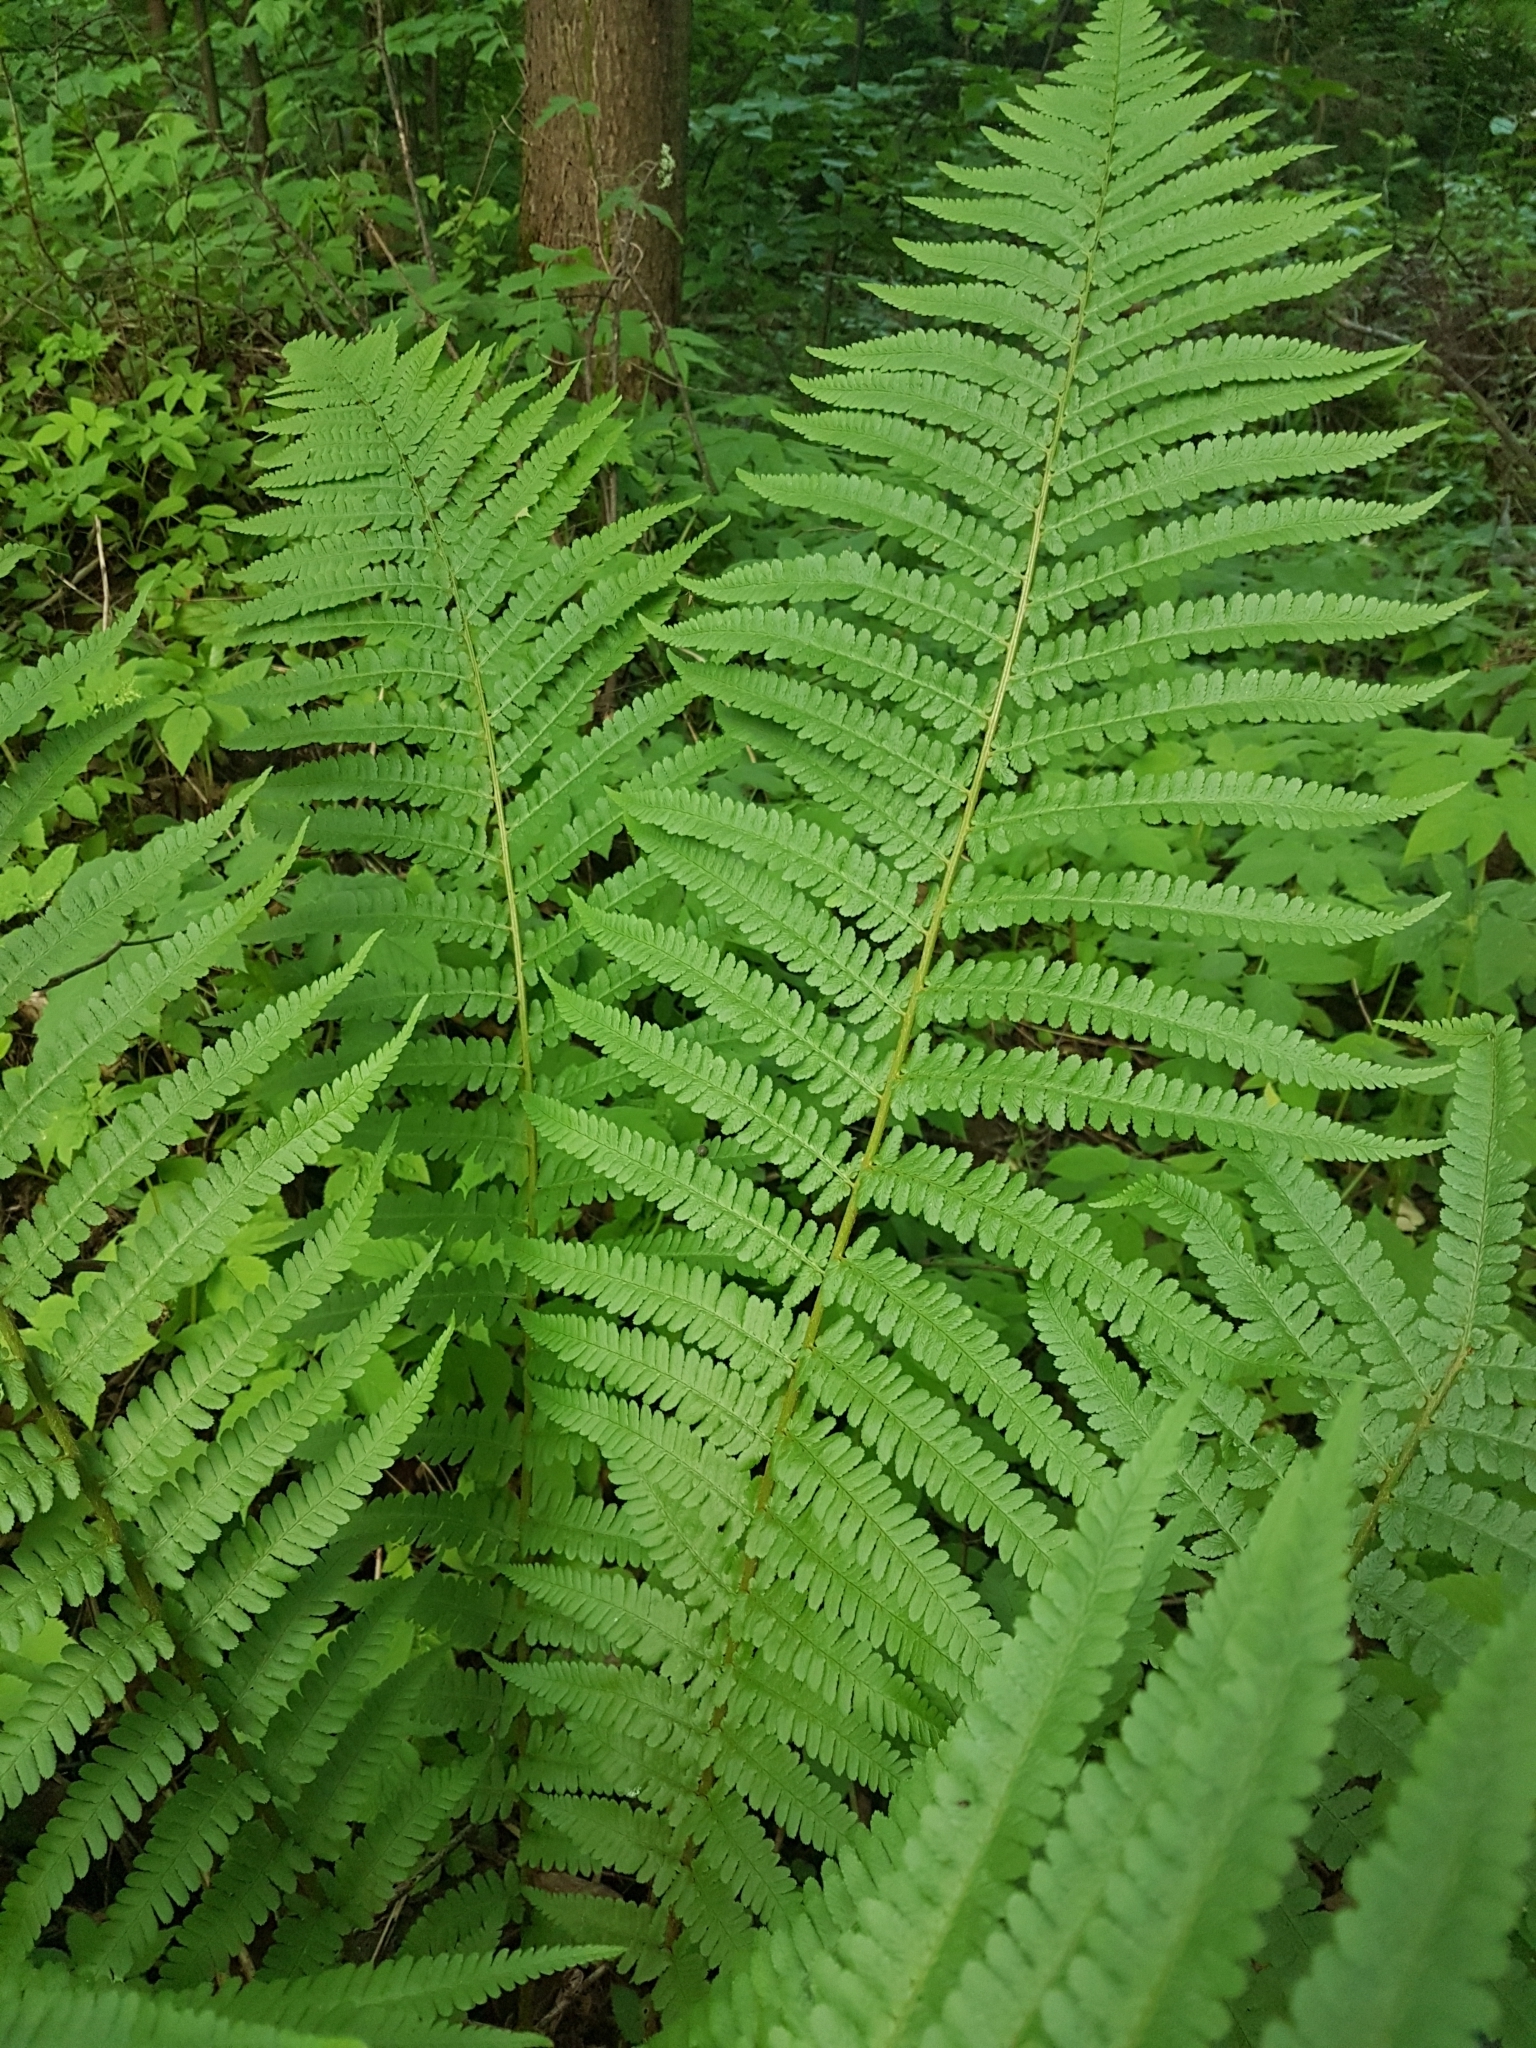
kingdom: Plantae
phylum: Tracheophyta
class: Polypodiopsida
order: Polypodiales
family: Dryopteridaceae
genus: Dryopteris
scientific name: Dryopteris filix-mas
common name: Male fern
